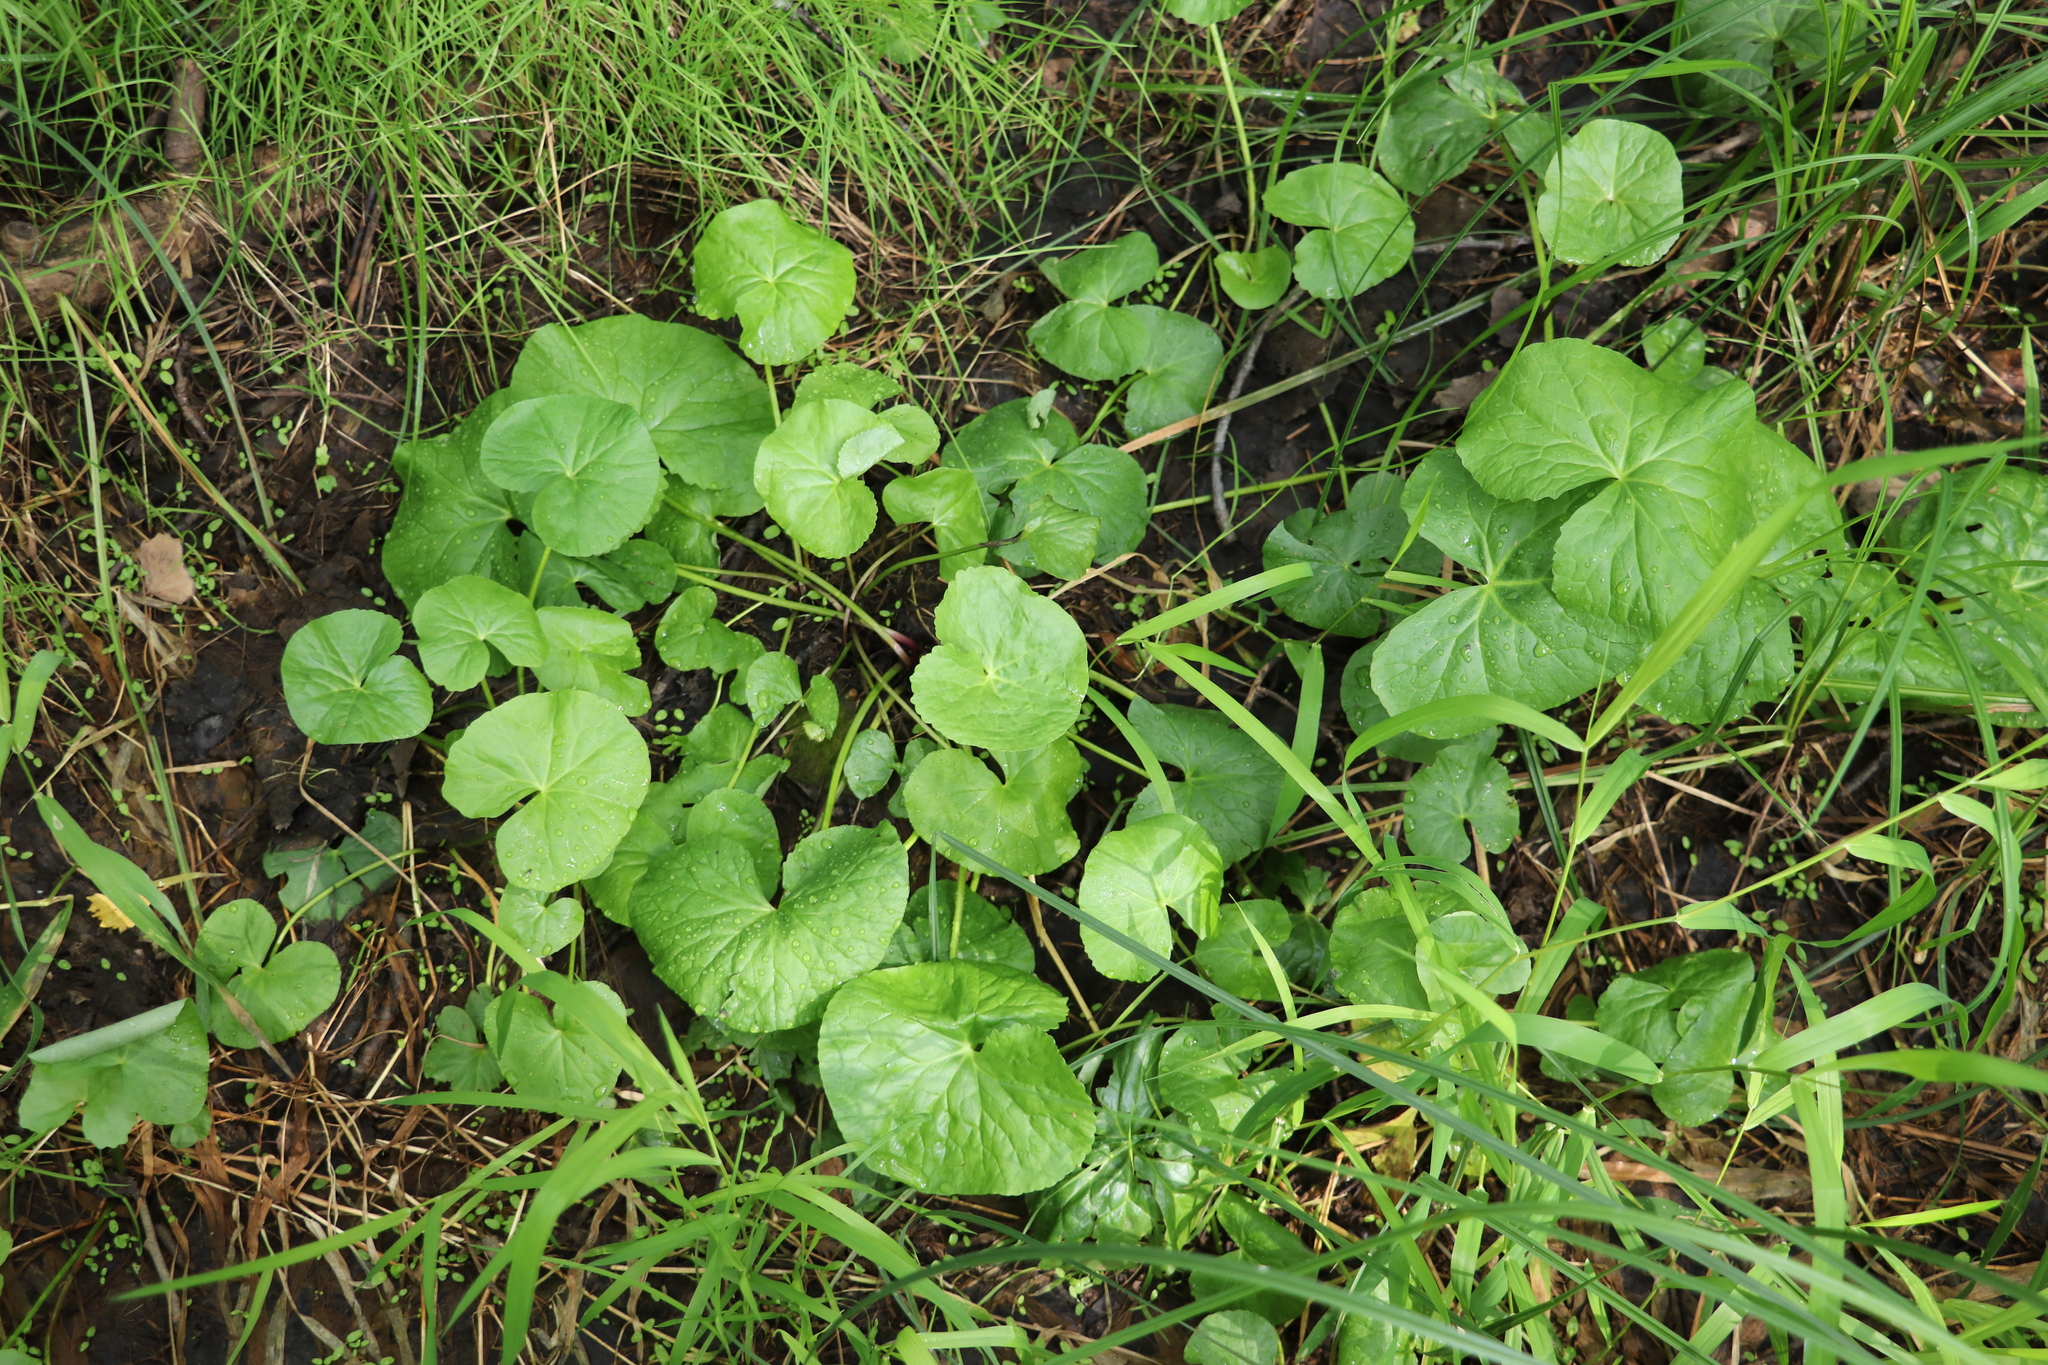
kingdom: Plantae
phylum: Tracheophyta
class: Magnoliopsida
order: Ranunculales
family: Ranunculaceae
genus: Caltha
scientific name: Caltha palustris
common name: Marsh marigold
